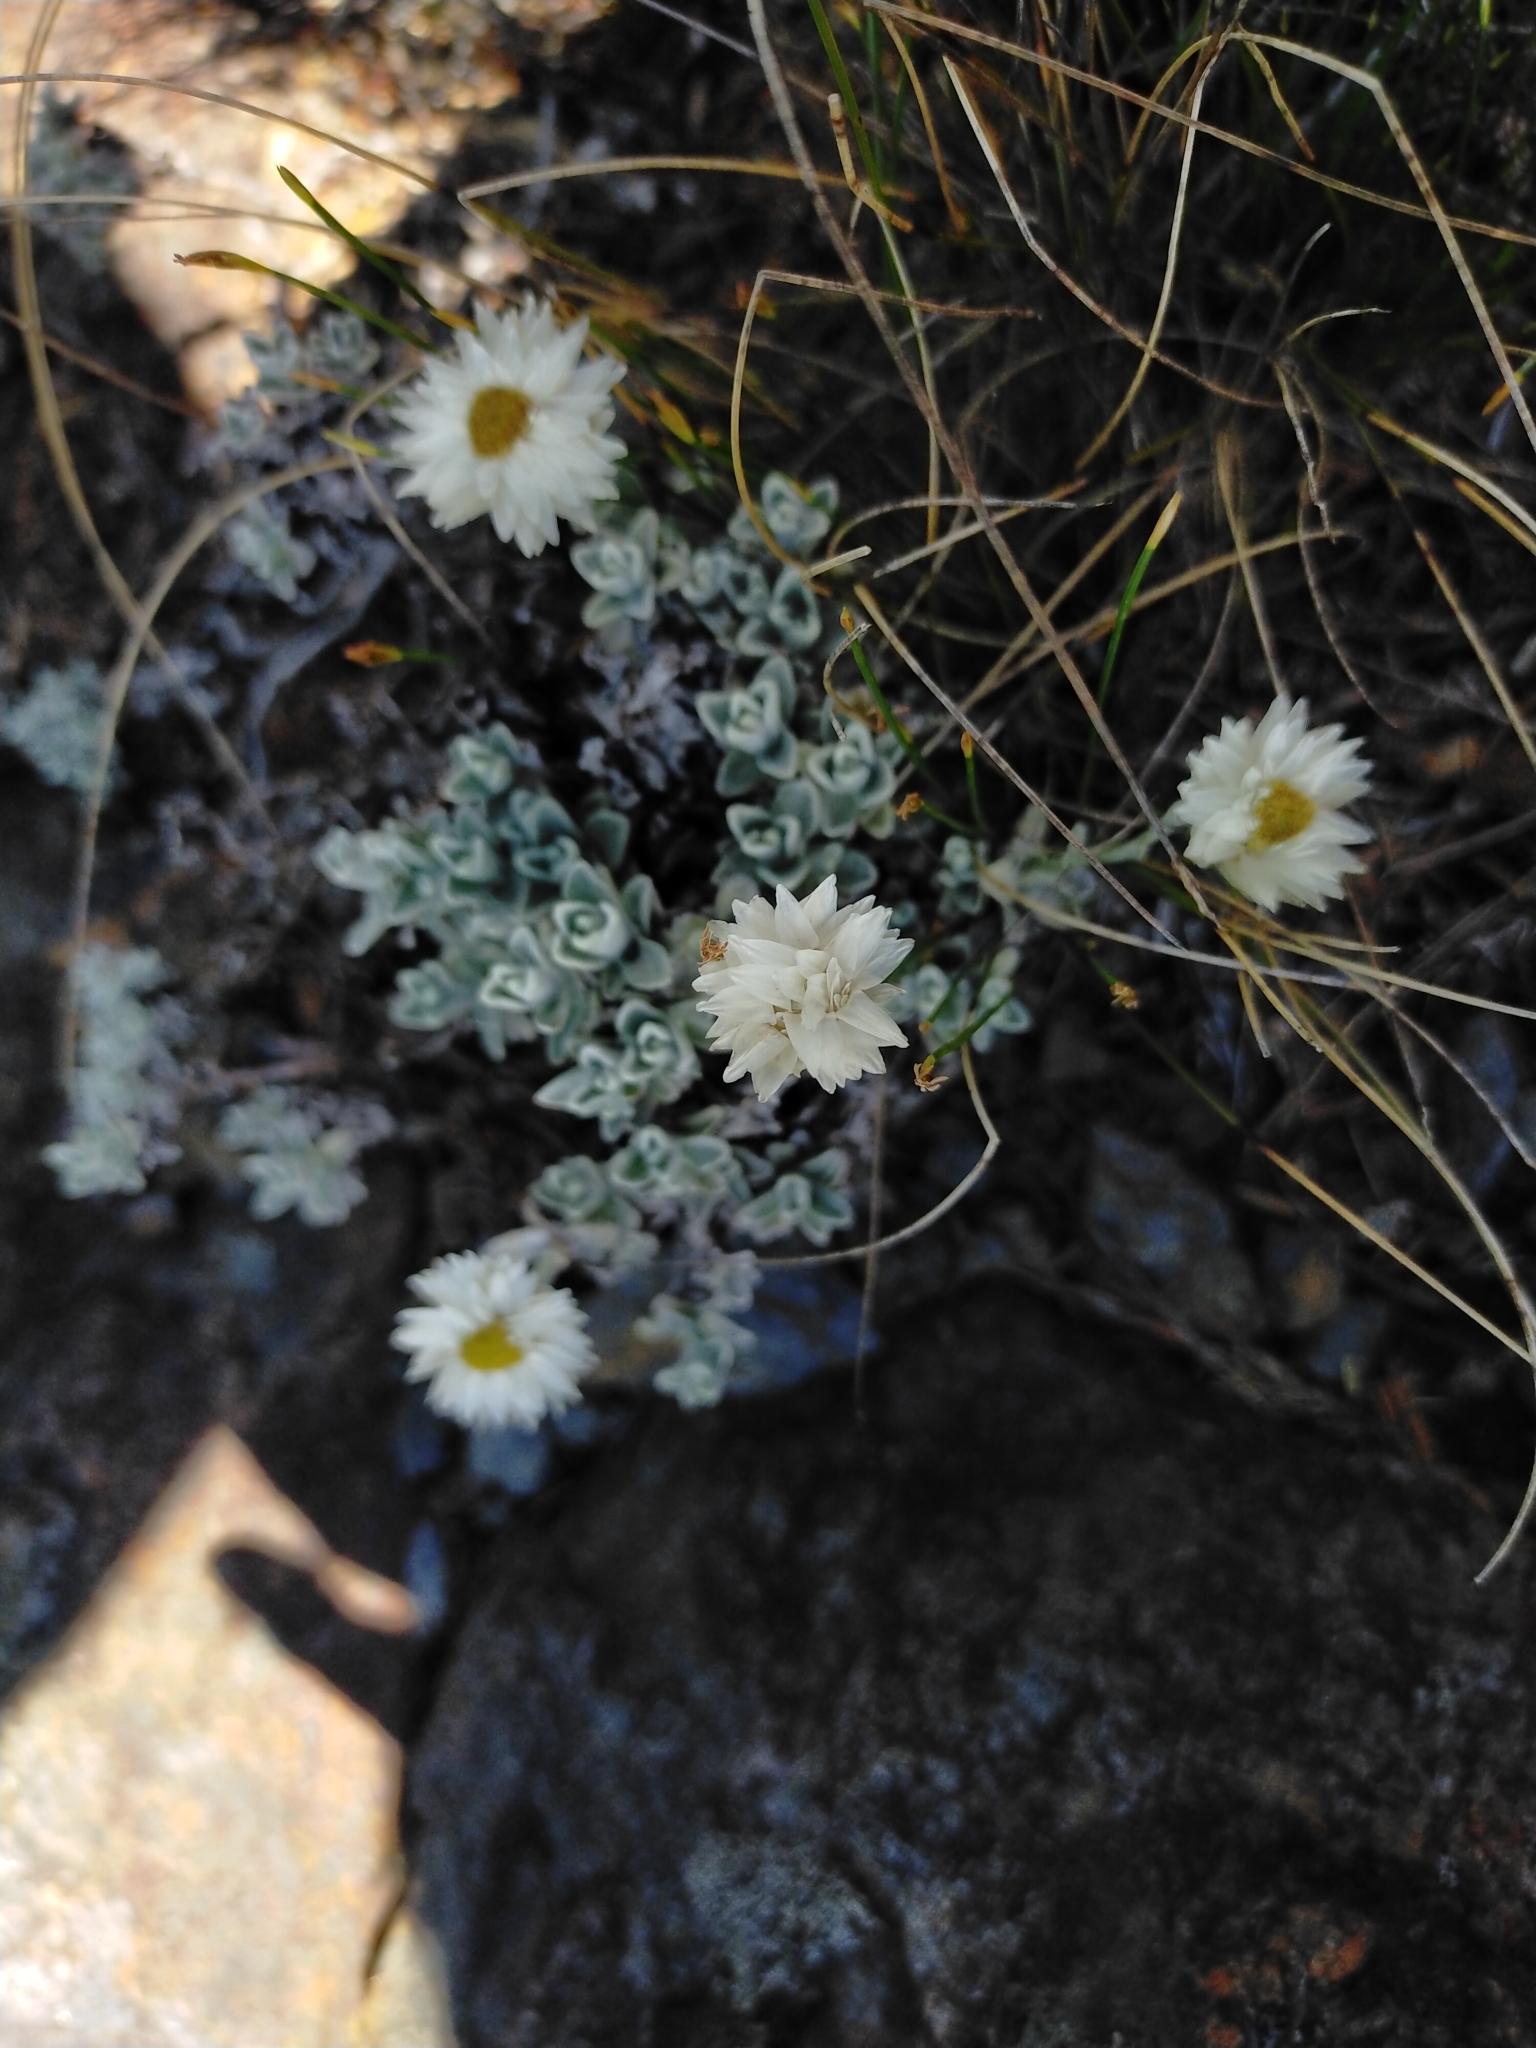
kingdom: Plantae
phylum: Tracheophyta
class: Magnoliopsida
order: Asterales
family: Asteraceae
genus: Anaphalis
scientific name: Anaphalis nepalensis
